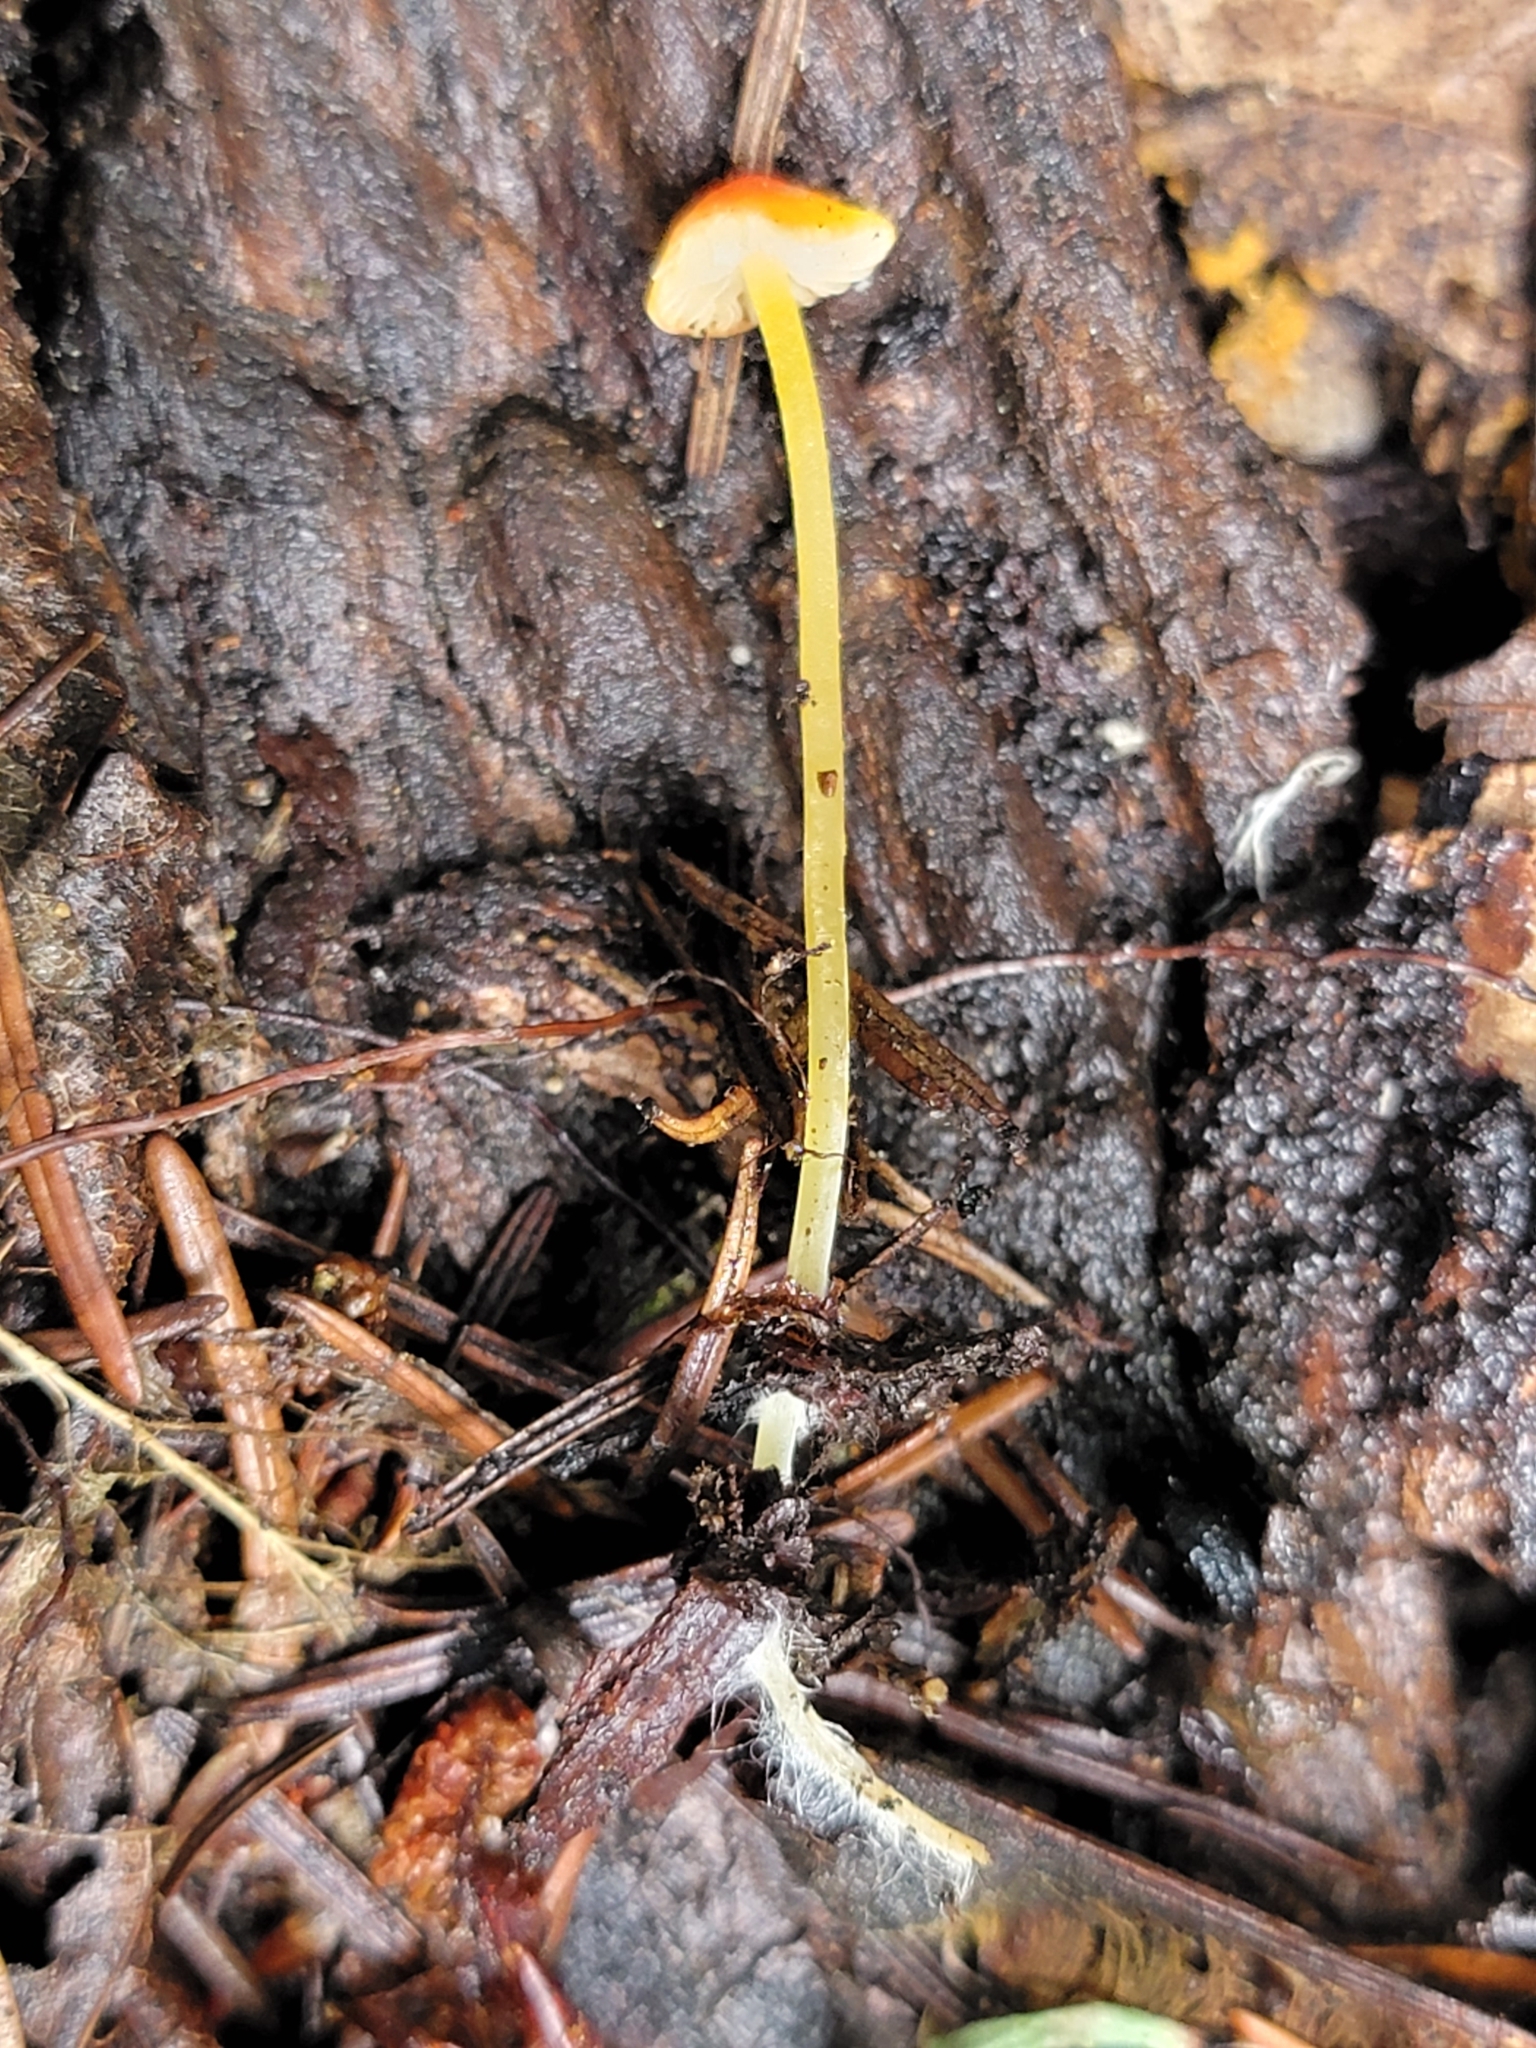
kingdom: Fungi
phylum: Basidiomycota
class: Agaricomycetes
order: Agaricales
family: Mycenaceae
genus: Mycena
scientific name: Mycena acicula
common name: Orange bonnet
